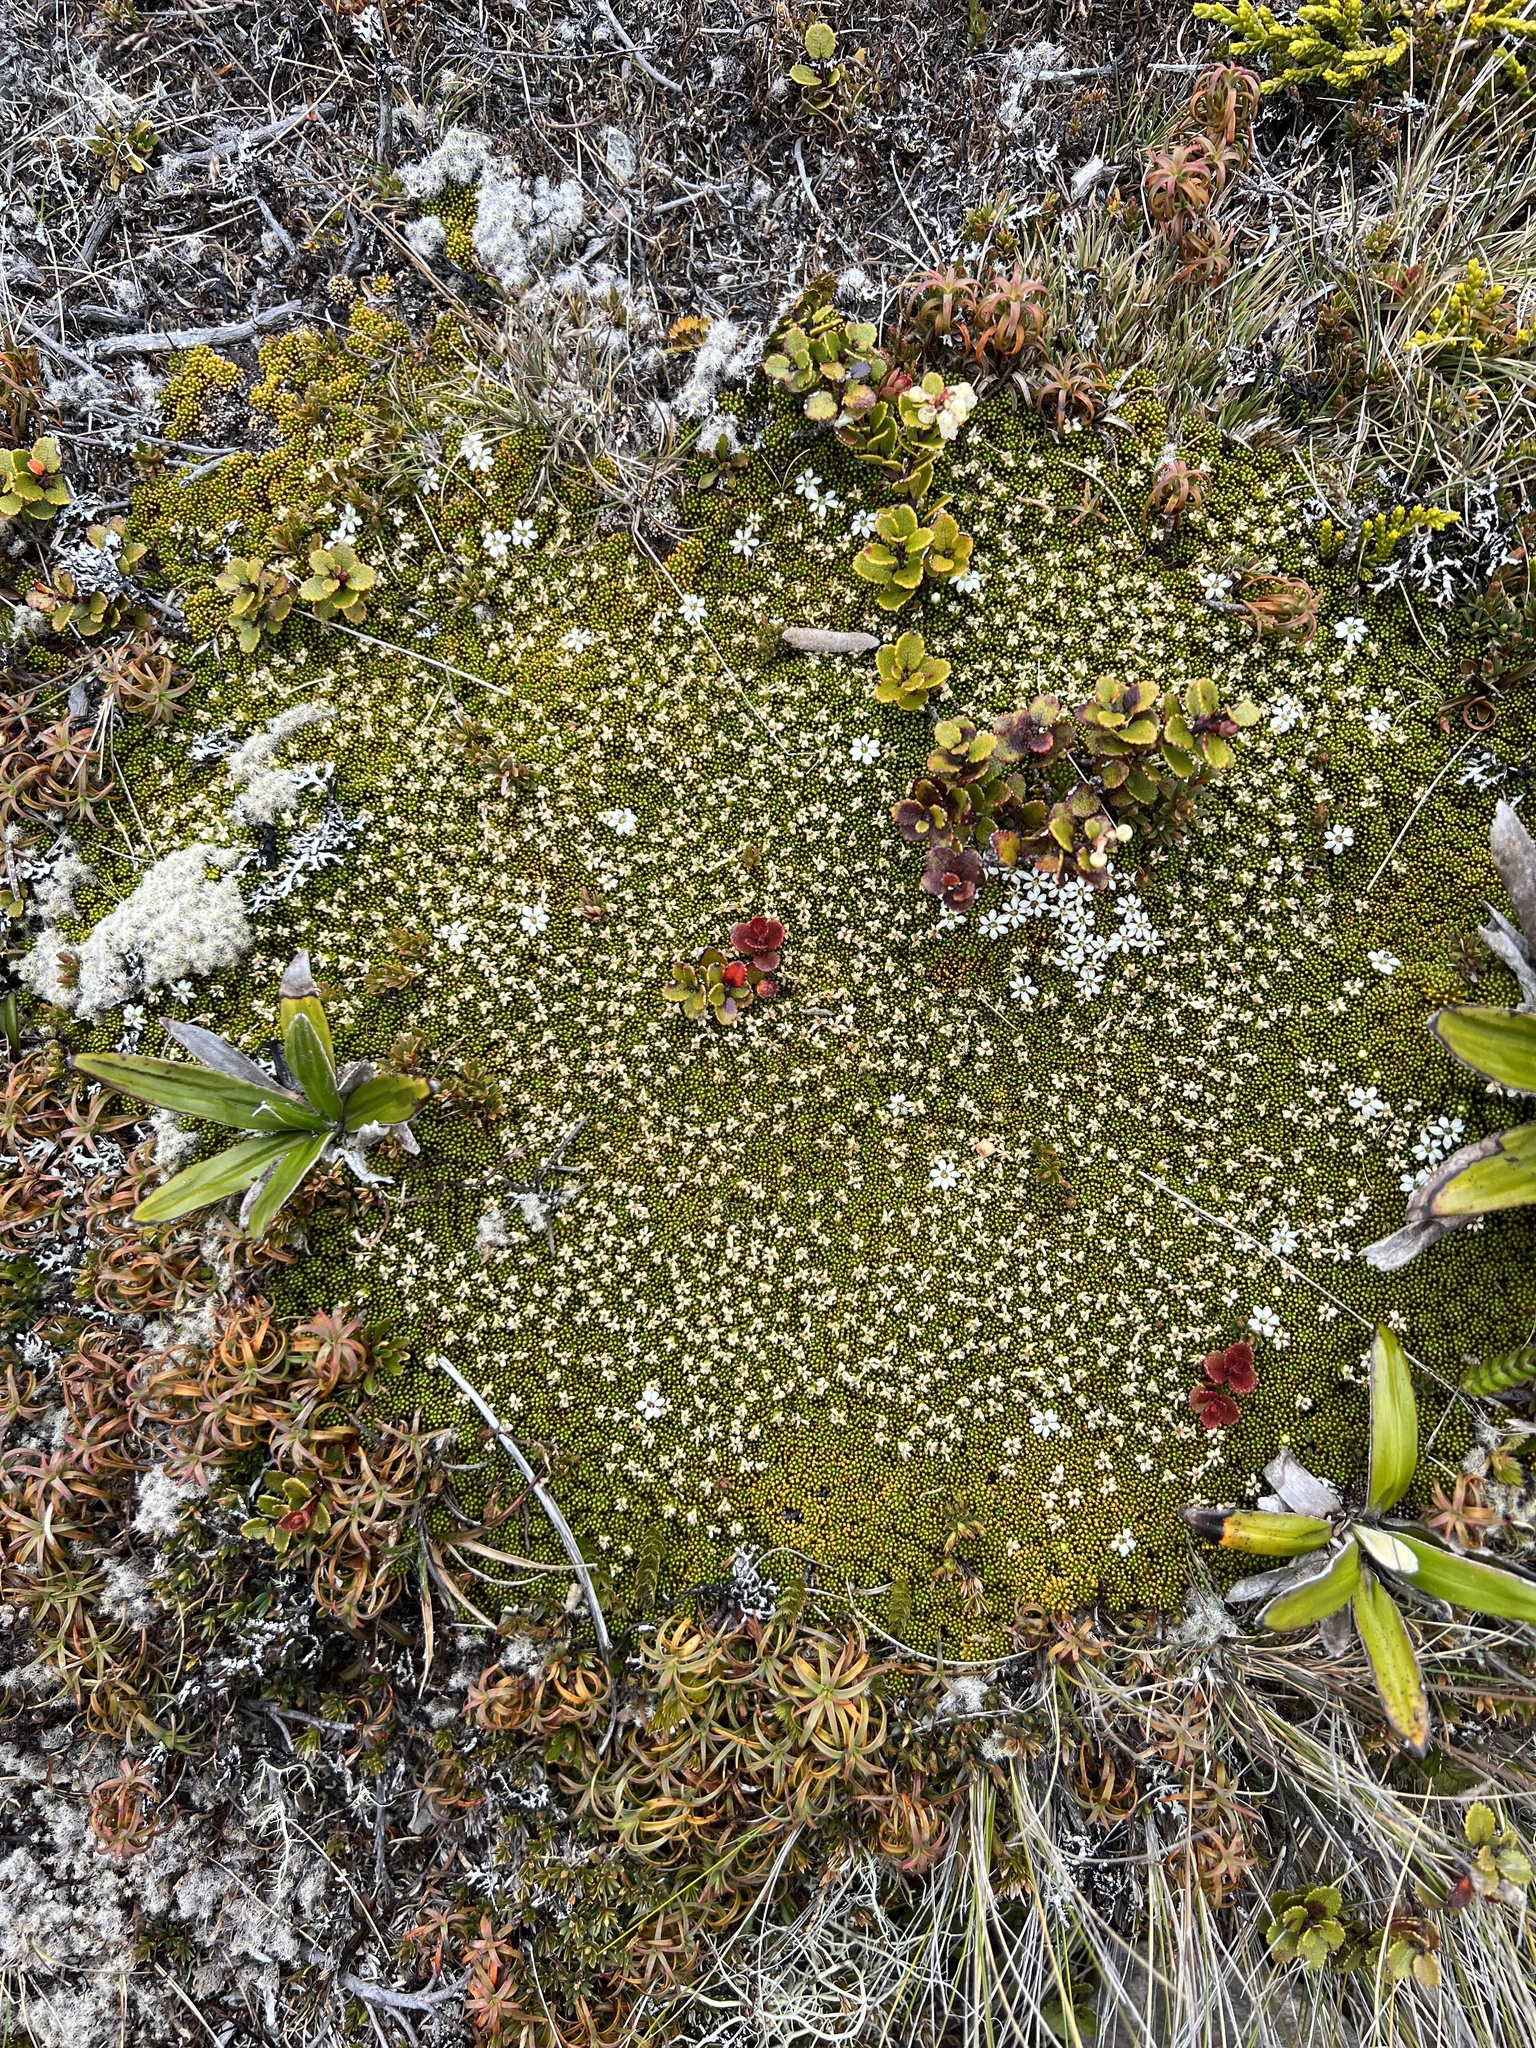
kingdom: Plantae
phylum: Tracheophyta
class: Magnoliopsida
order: Asterales
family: Stylidiaceae
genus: Phyllachne
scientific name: Phyllachne colensoi
